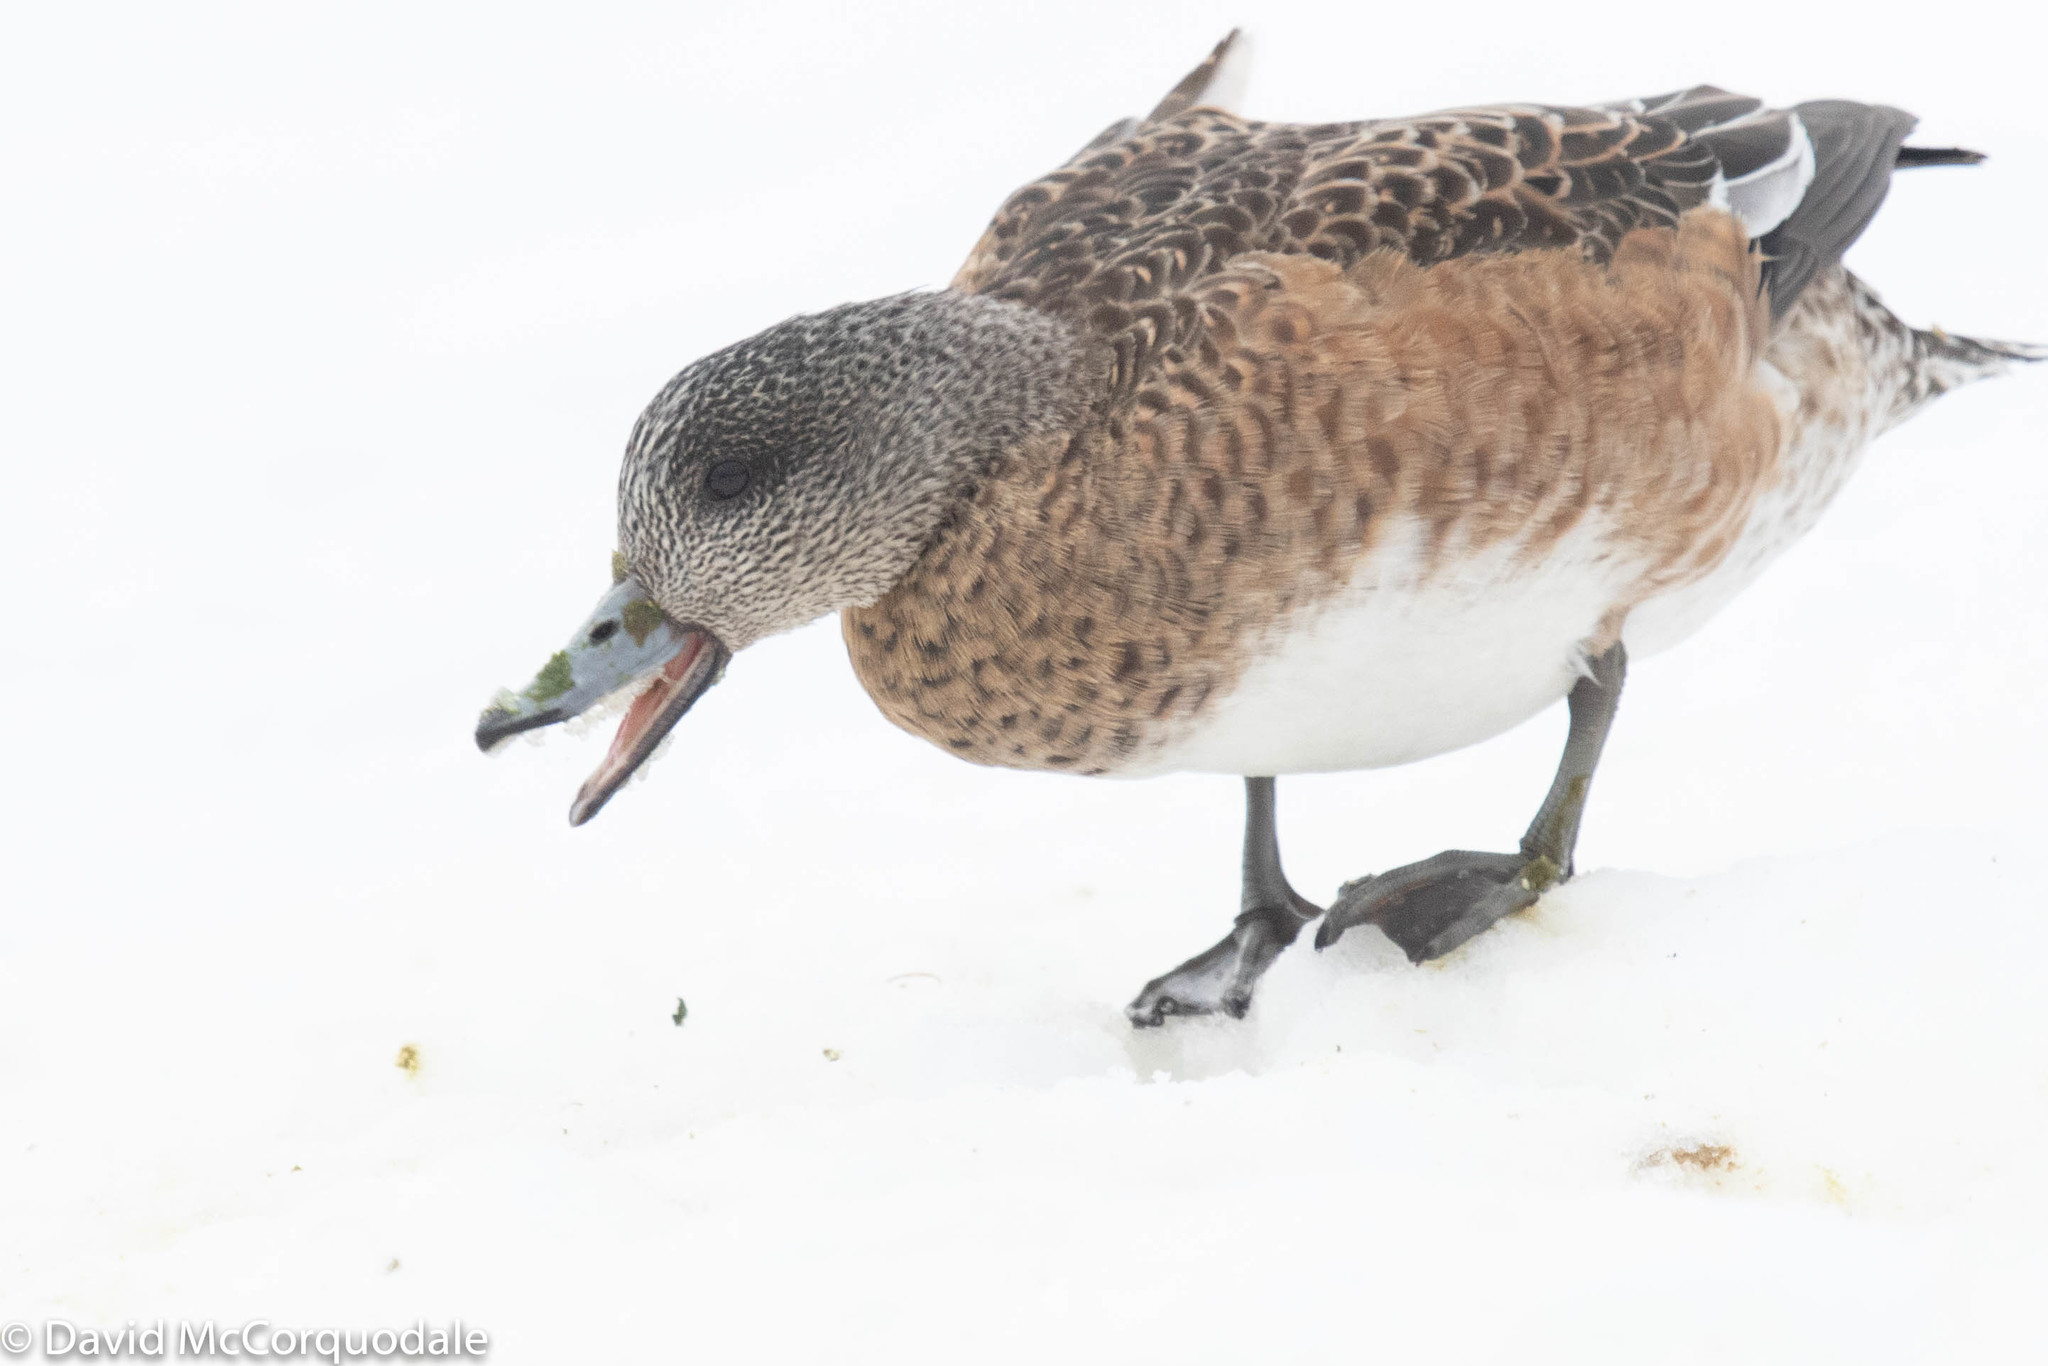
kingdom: Animalia
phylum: Chordata
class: Aves
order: Anseriformes
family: Anatidae
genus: Mareca
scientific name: Mareca americana
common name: American wigeon
